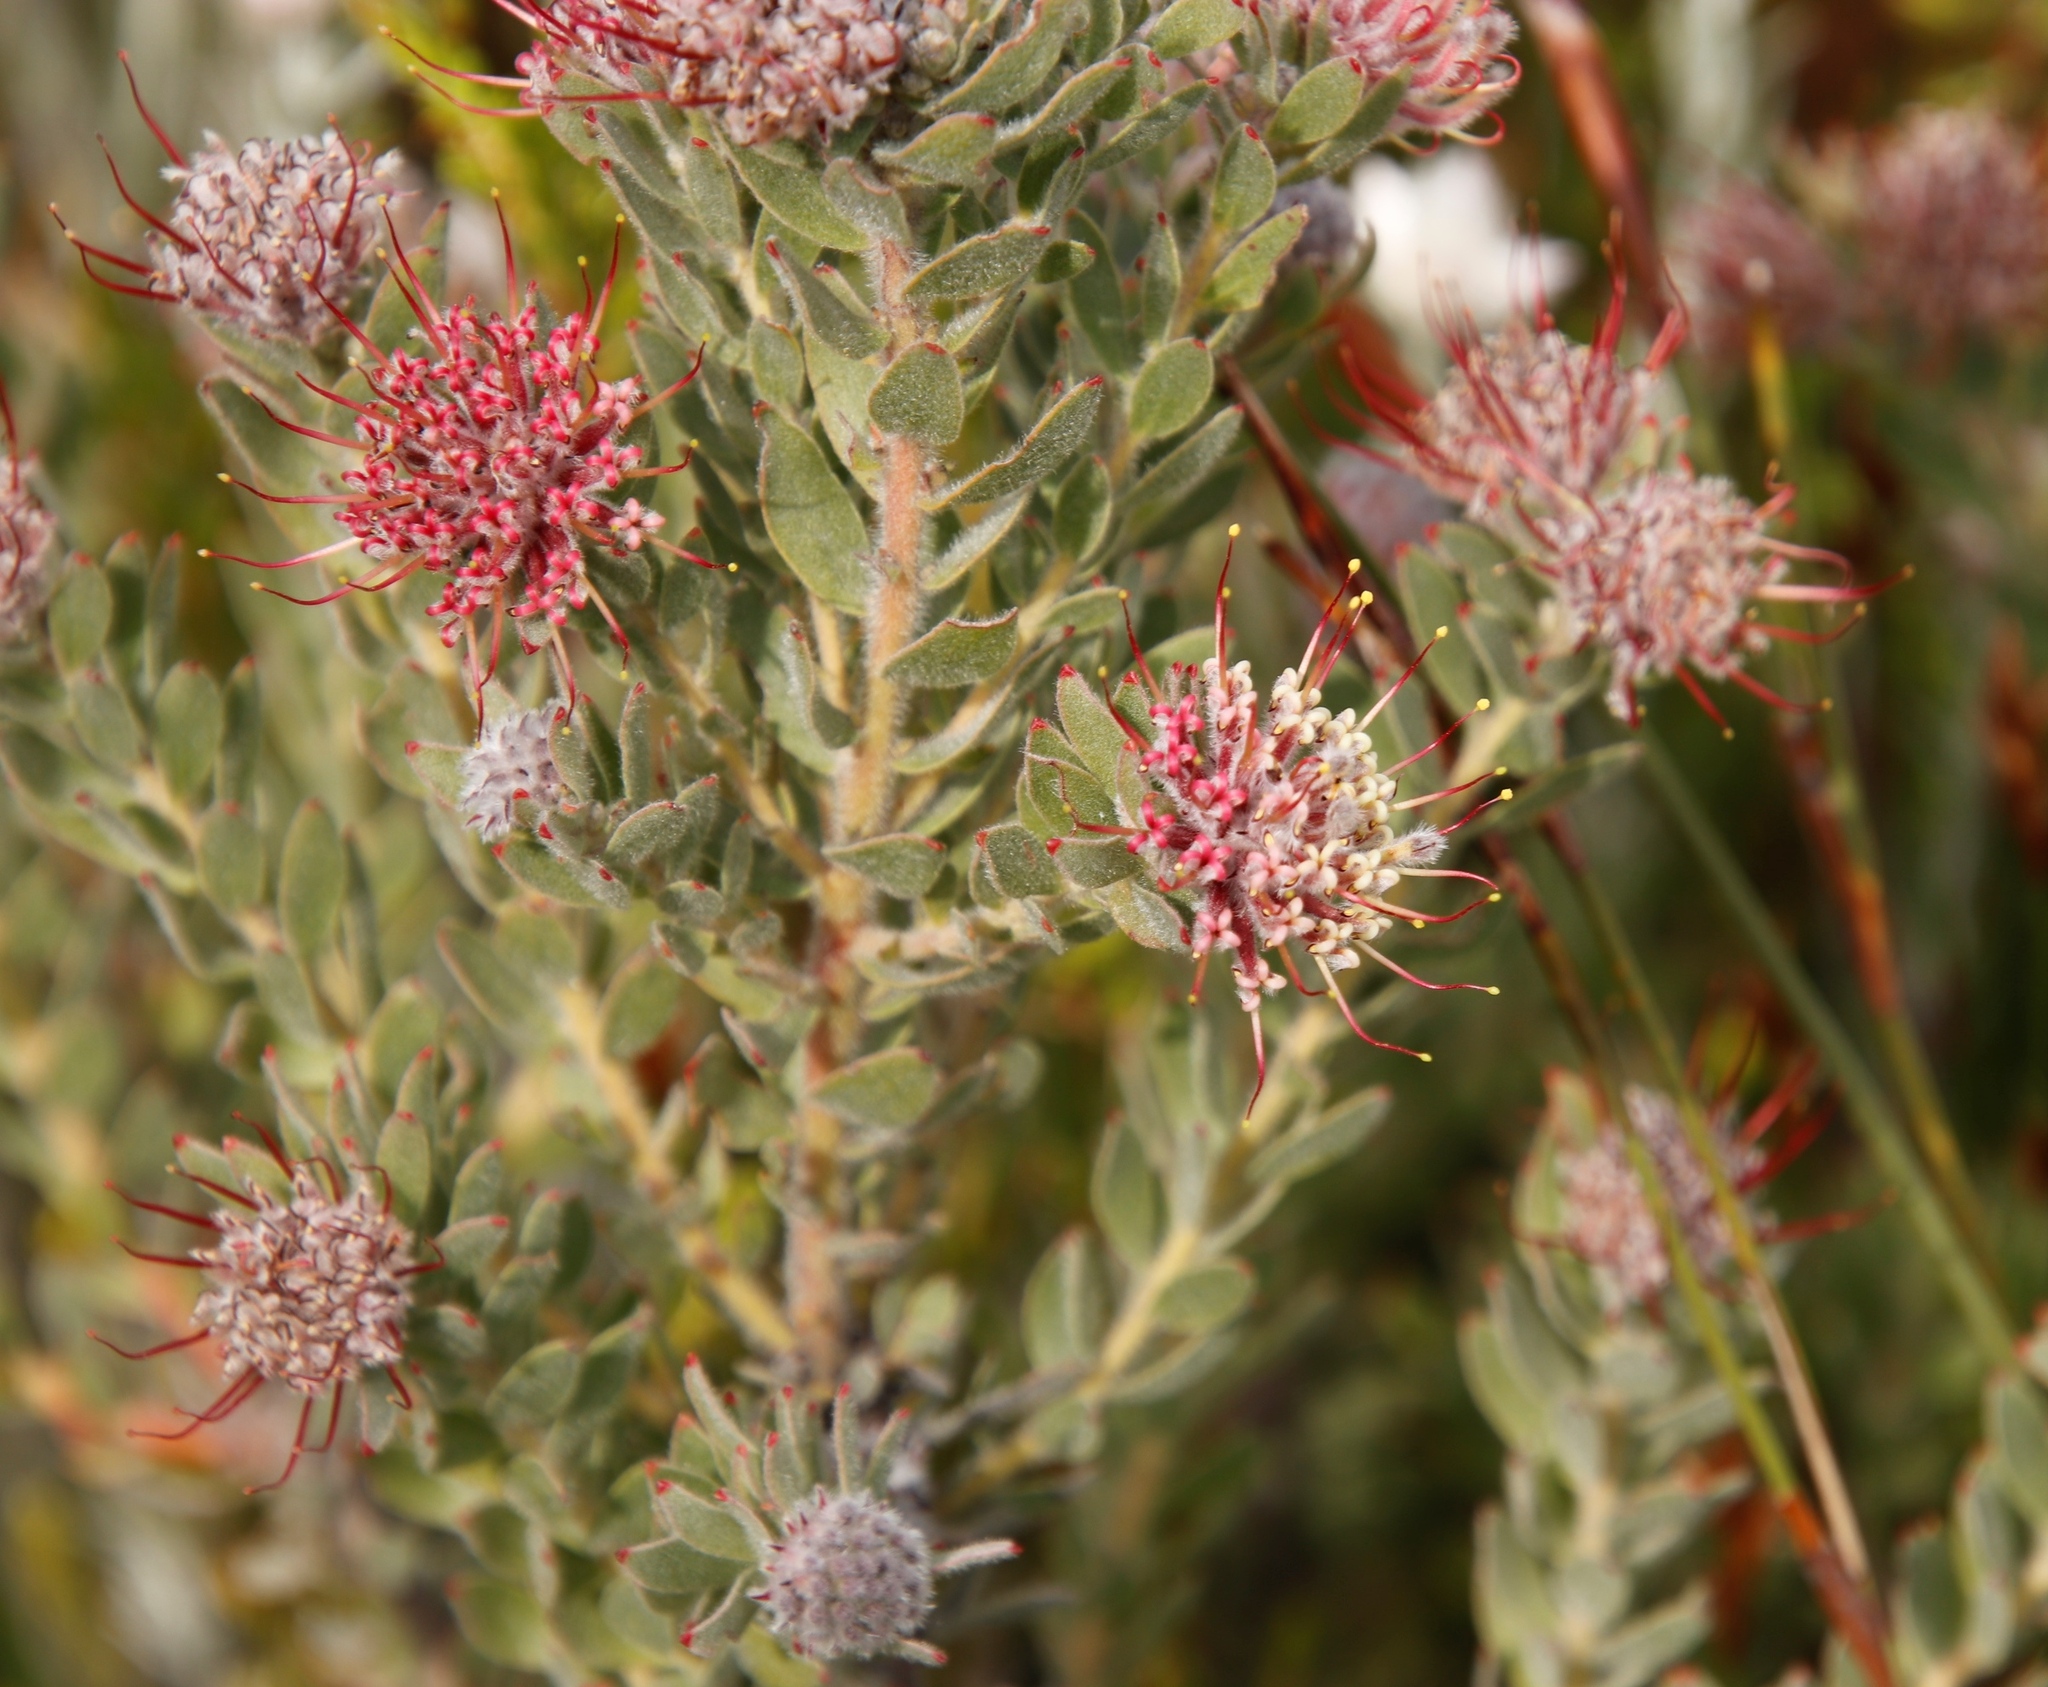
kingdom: Plantae
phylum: Tracheophyta
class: Magnoliopsida
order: Proteales
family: Proteaceae
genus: Leucospermum
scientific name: Leucospermum wittebergense
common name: Swartberg pincushion
